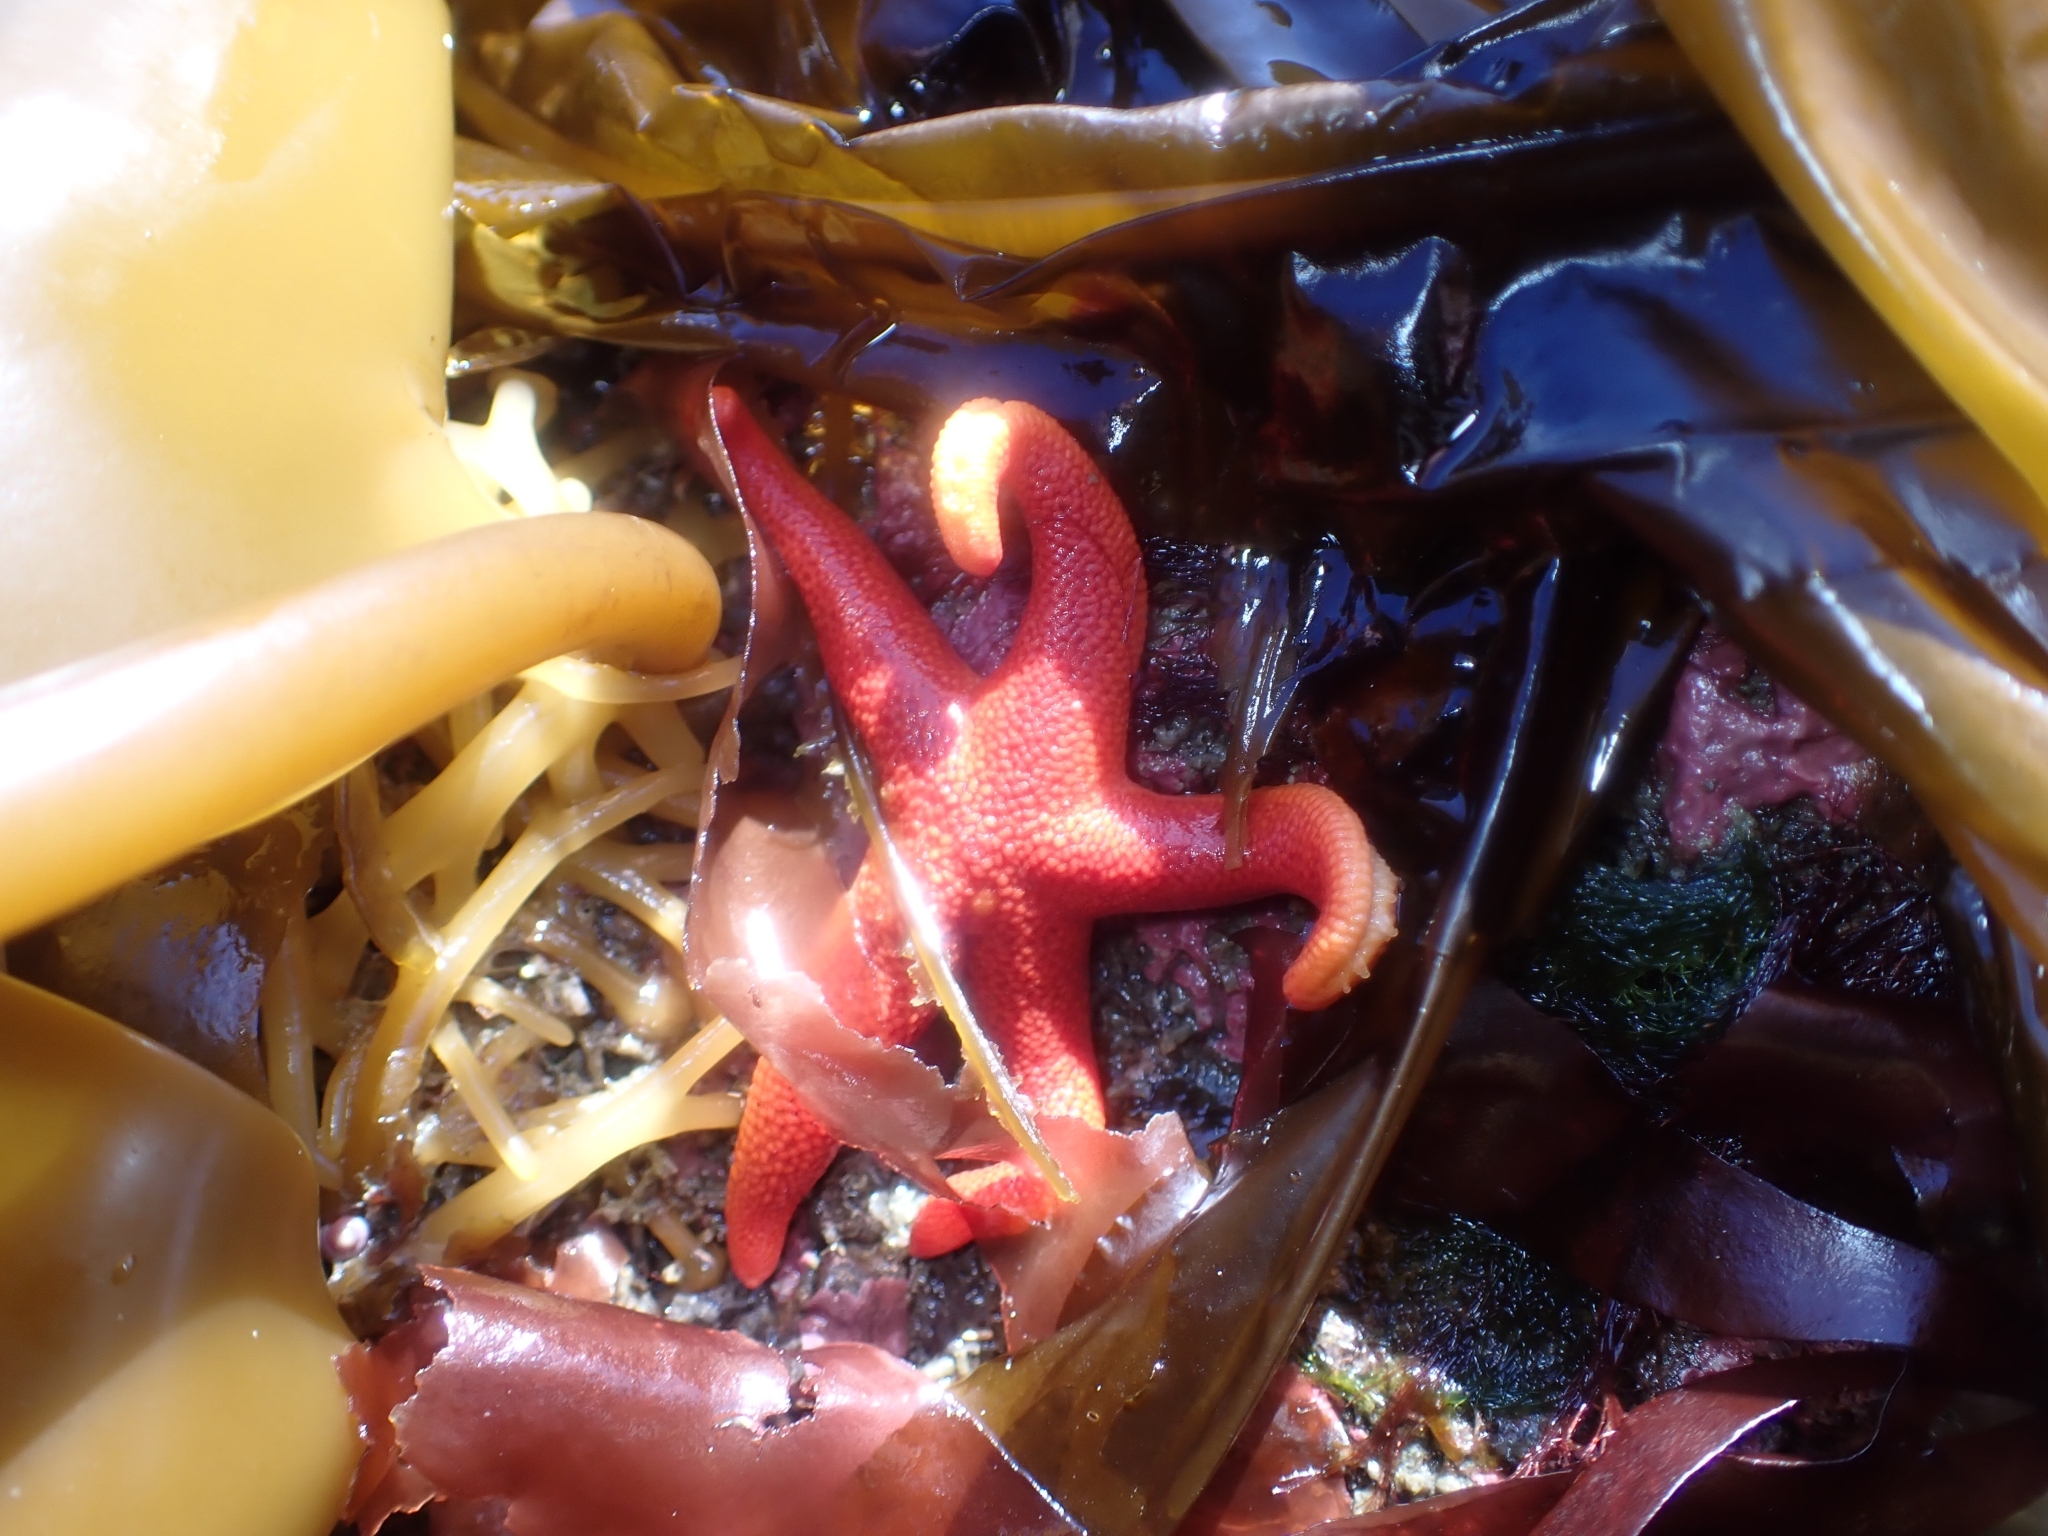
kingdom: Animalia
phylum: Echinodermata
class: Asteroidea
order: Spinulosida
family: Echinasteridae
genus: Henricia
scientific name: Henricia leviuscula
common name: Pacific blood star
